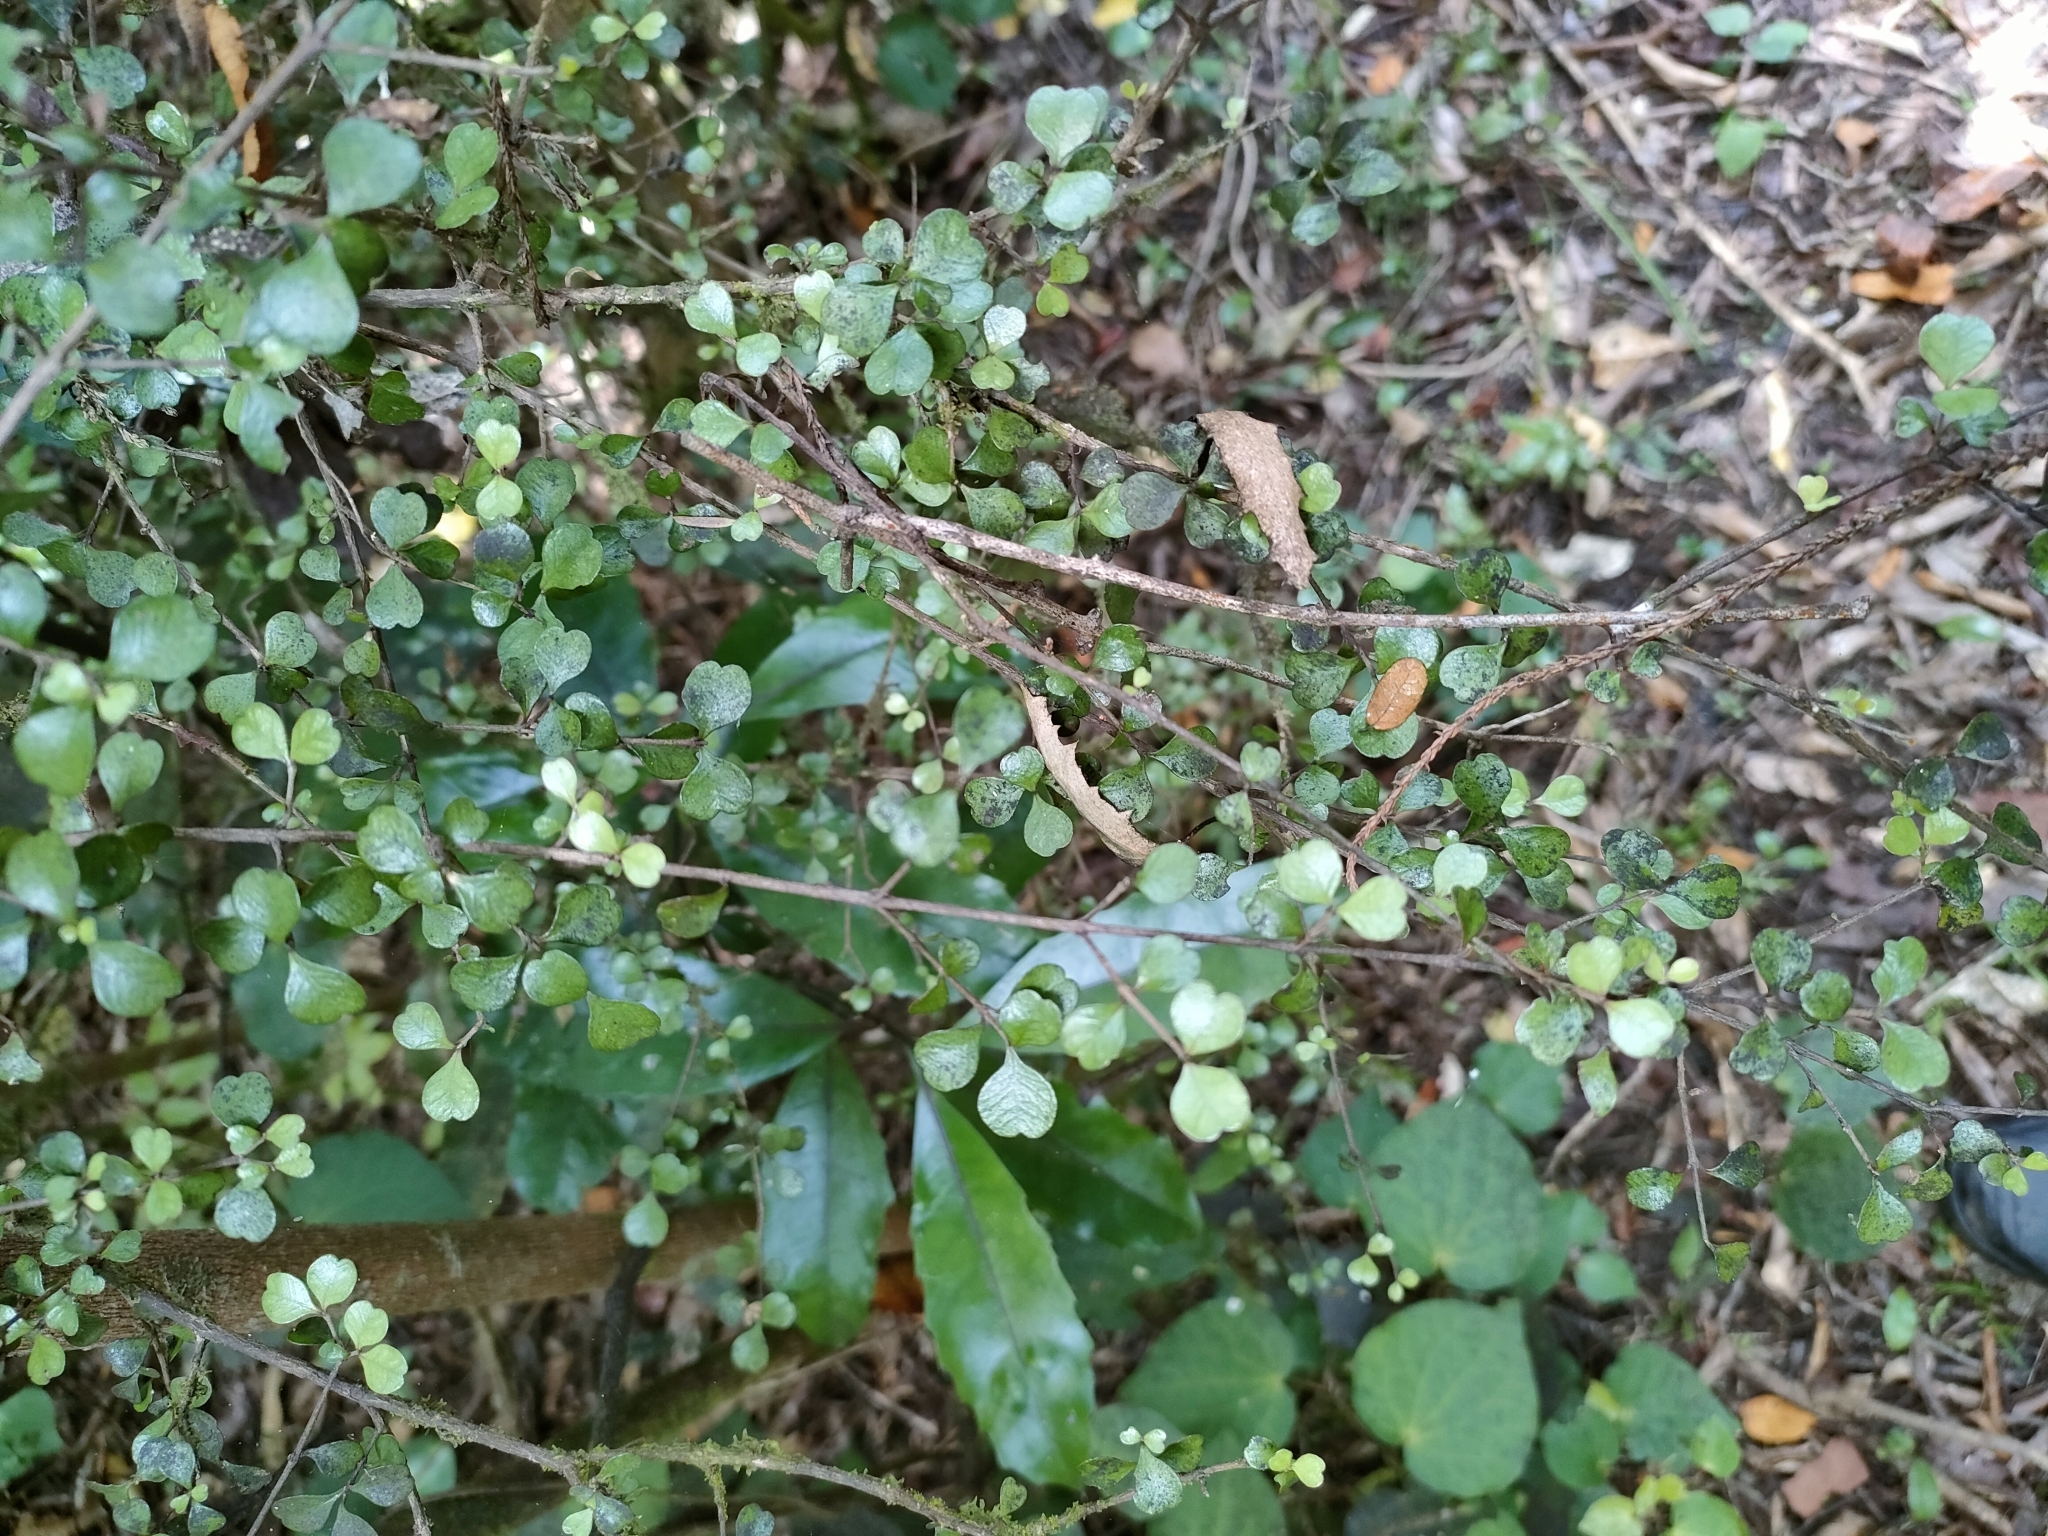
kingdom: Plantae
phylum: Tracheophyta
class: Magnoliopsida
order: Myrtales
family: Myrtaceae
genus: Lophomyrtus
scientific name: Lophomyrtus obcordata
